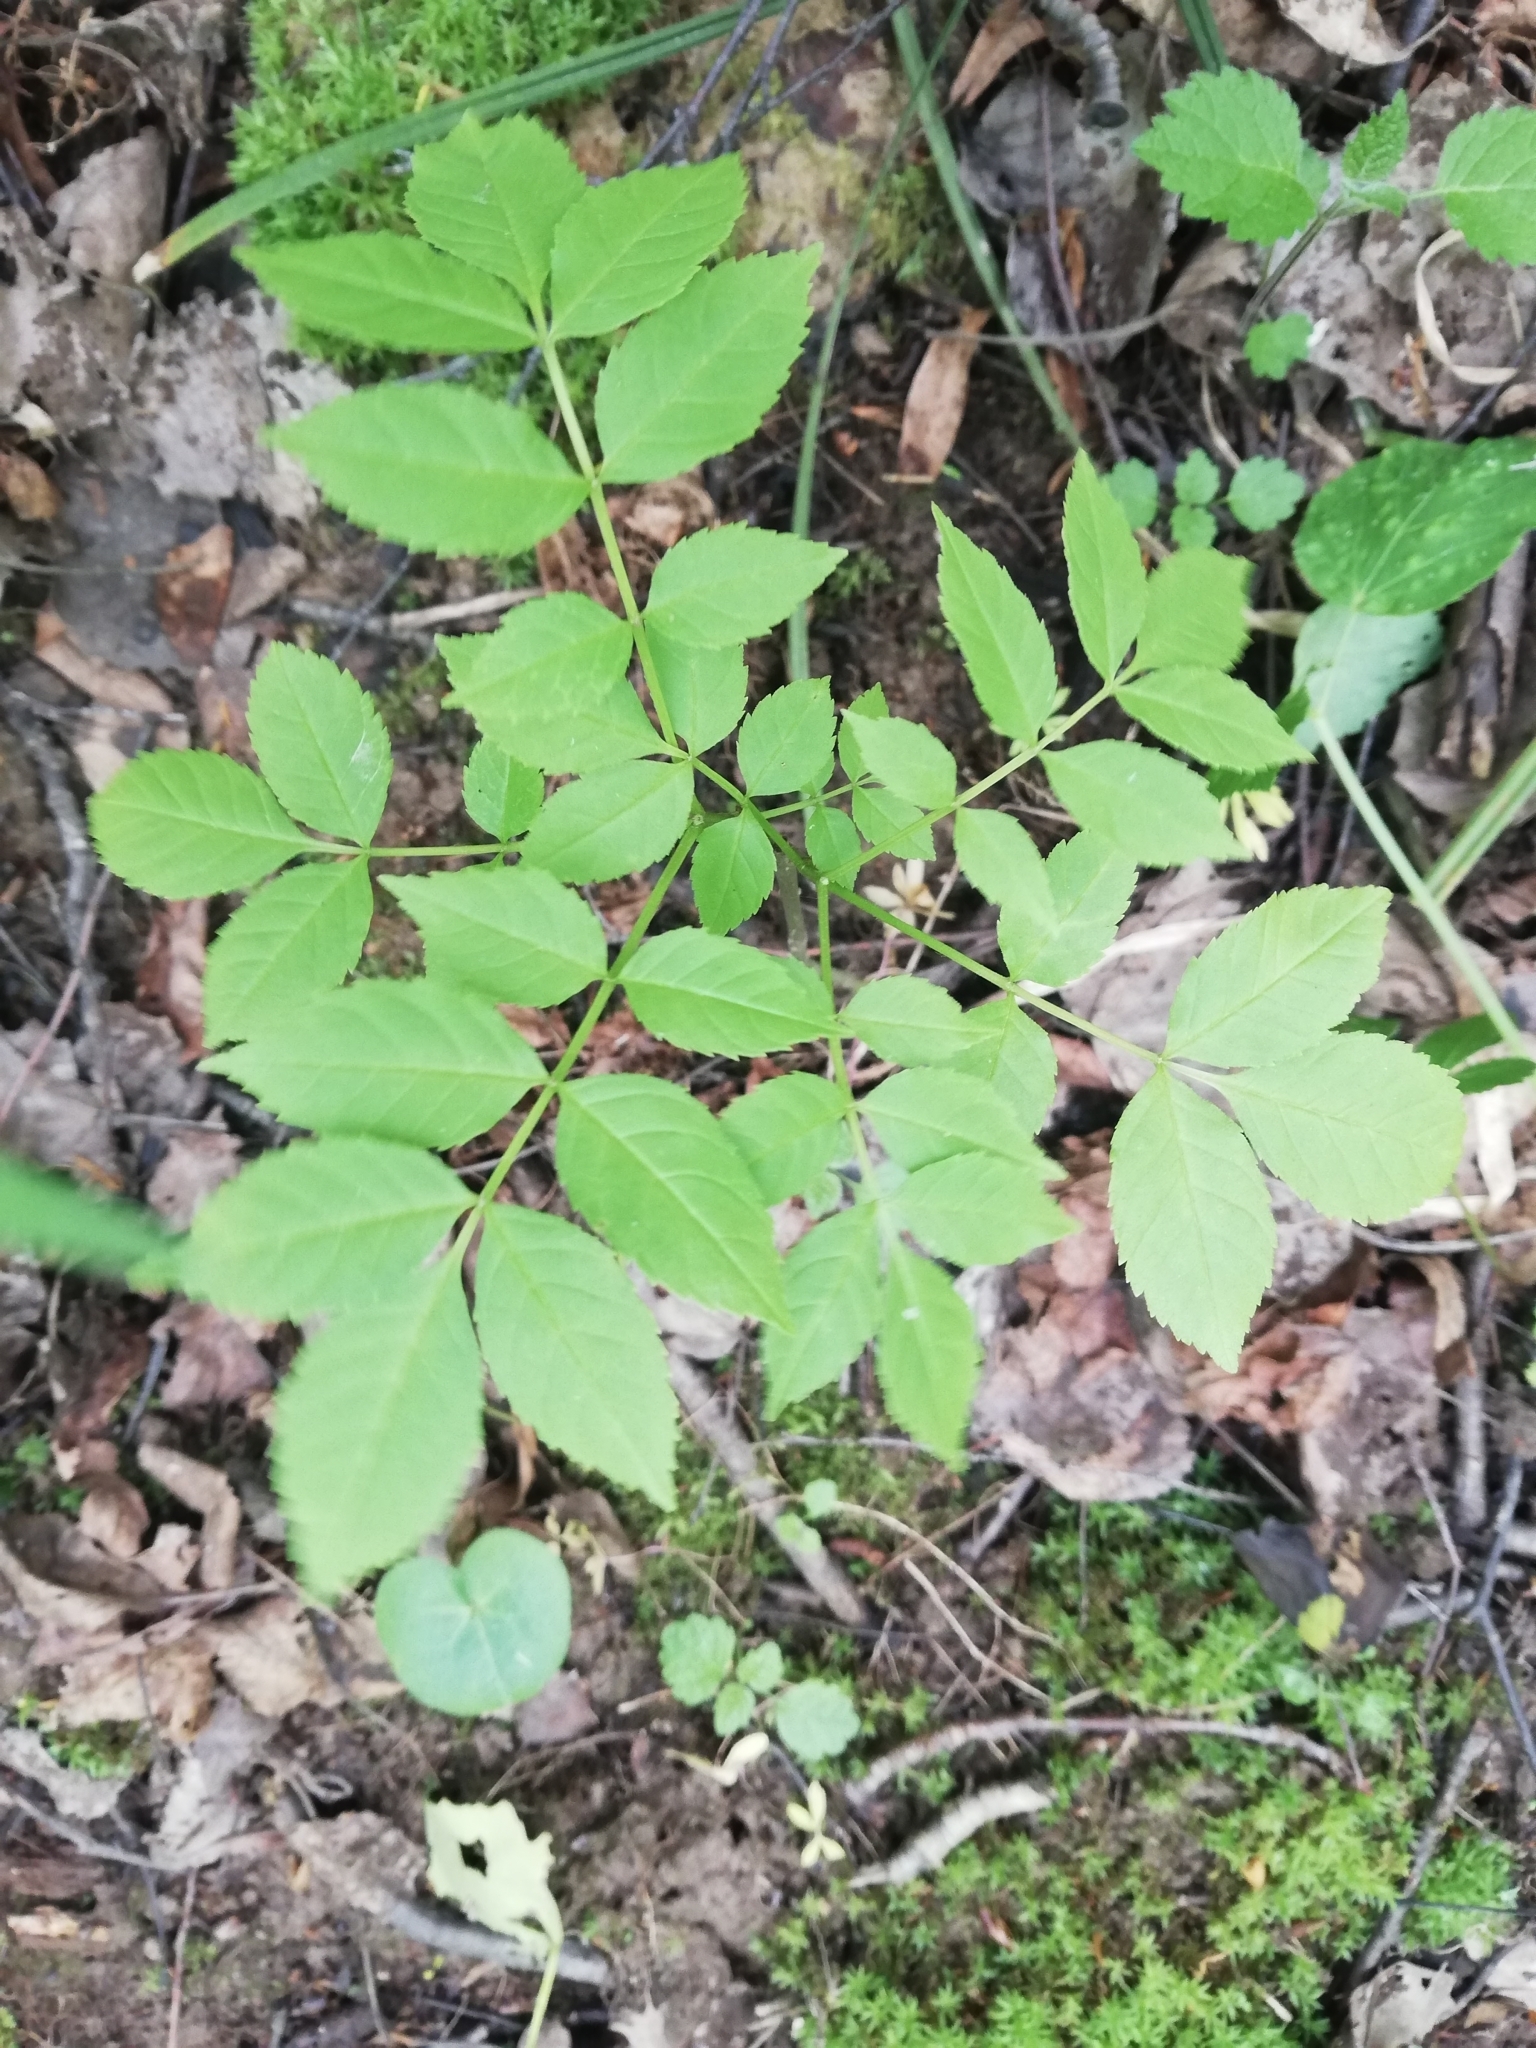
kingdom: Plantae
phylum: Tracheophyta
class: Magnoliopsida
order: Lamiales
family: Oleaceae
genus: Fraxinus
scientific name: Fraxinus excelsior
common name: European ash
